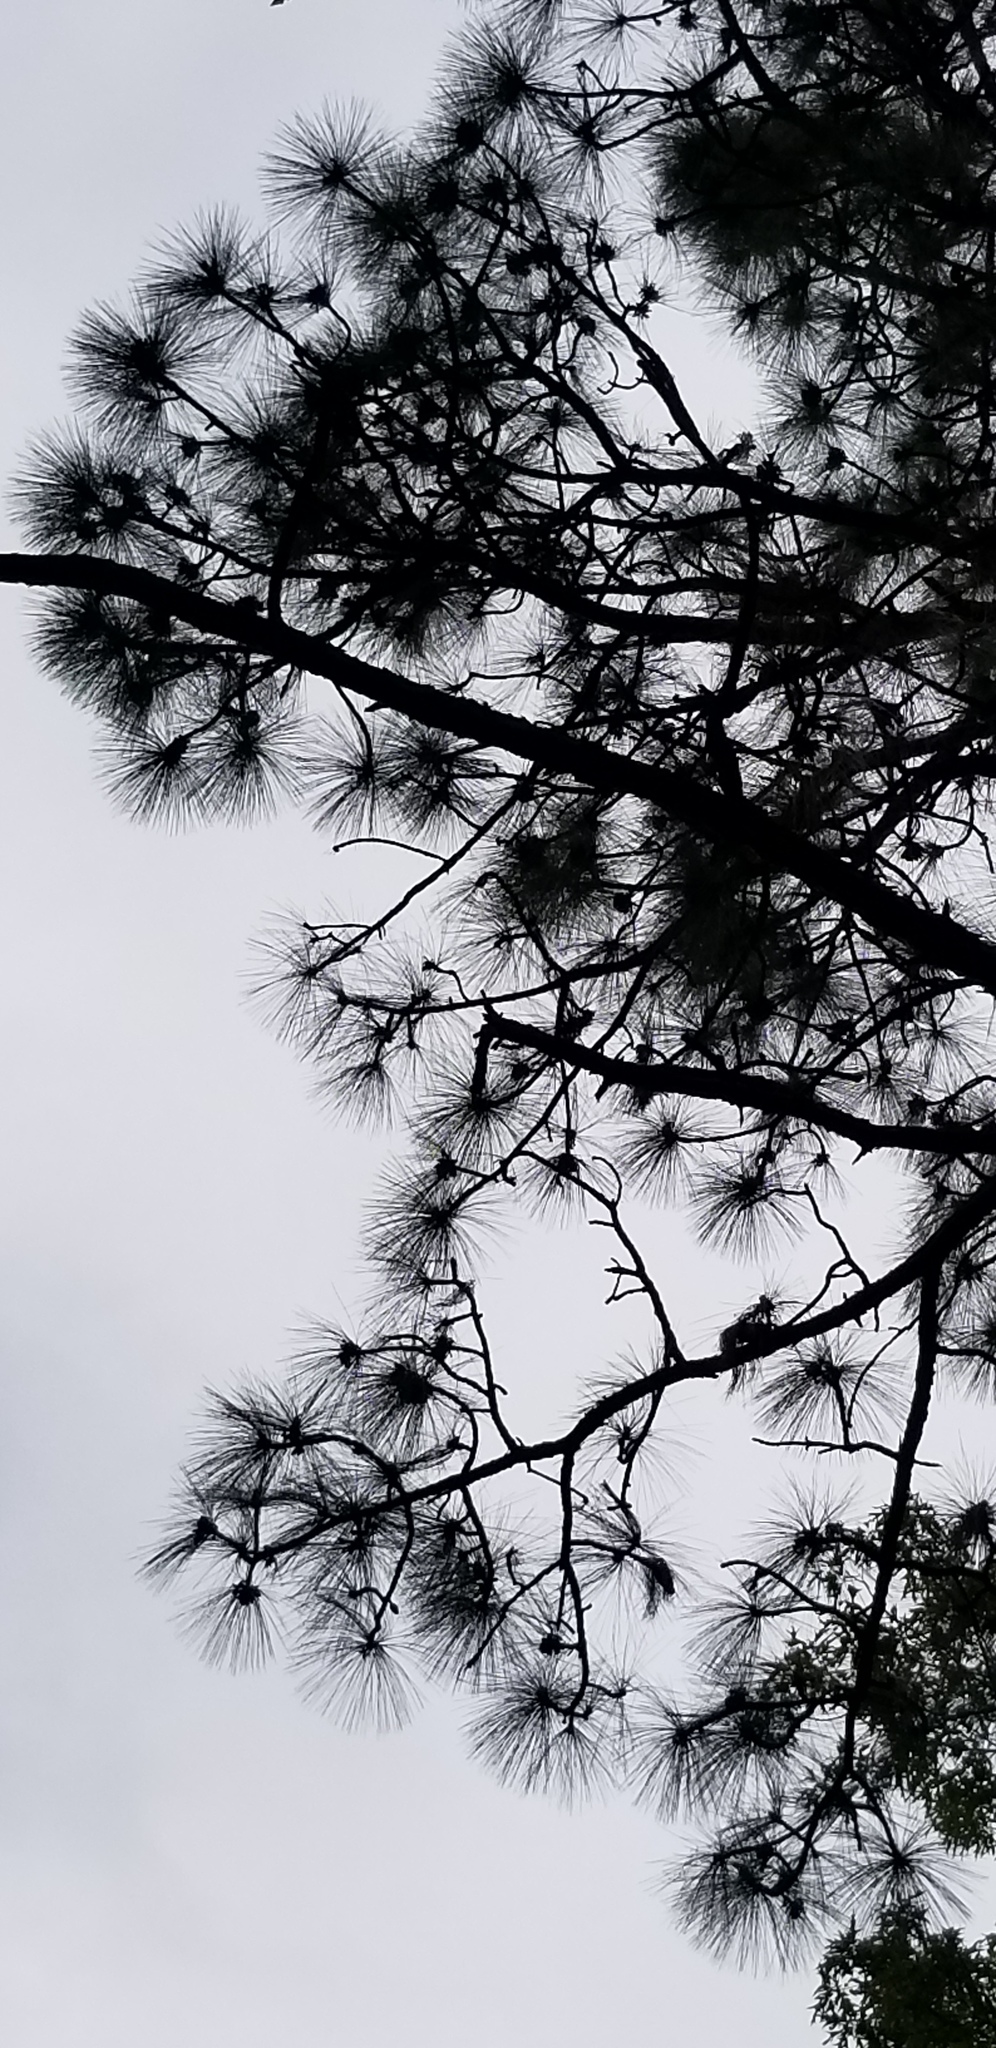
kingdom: Plantae
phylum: Tracheophyta
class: Pinopsida
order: Pinales
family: Pinaceae
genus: Pinus
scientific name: Pinus palustris
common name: Longleaf pine
